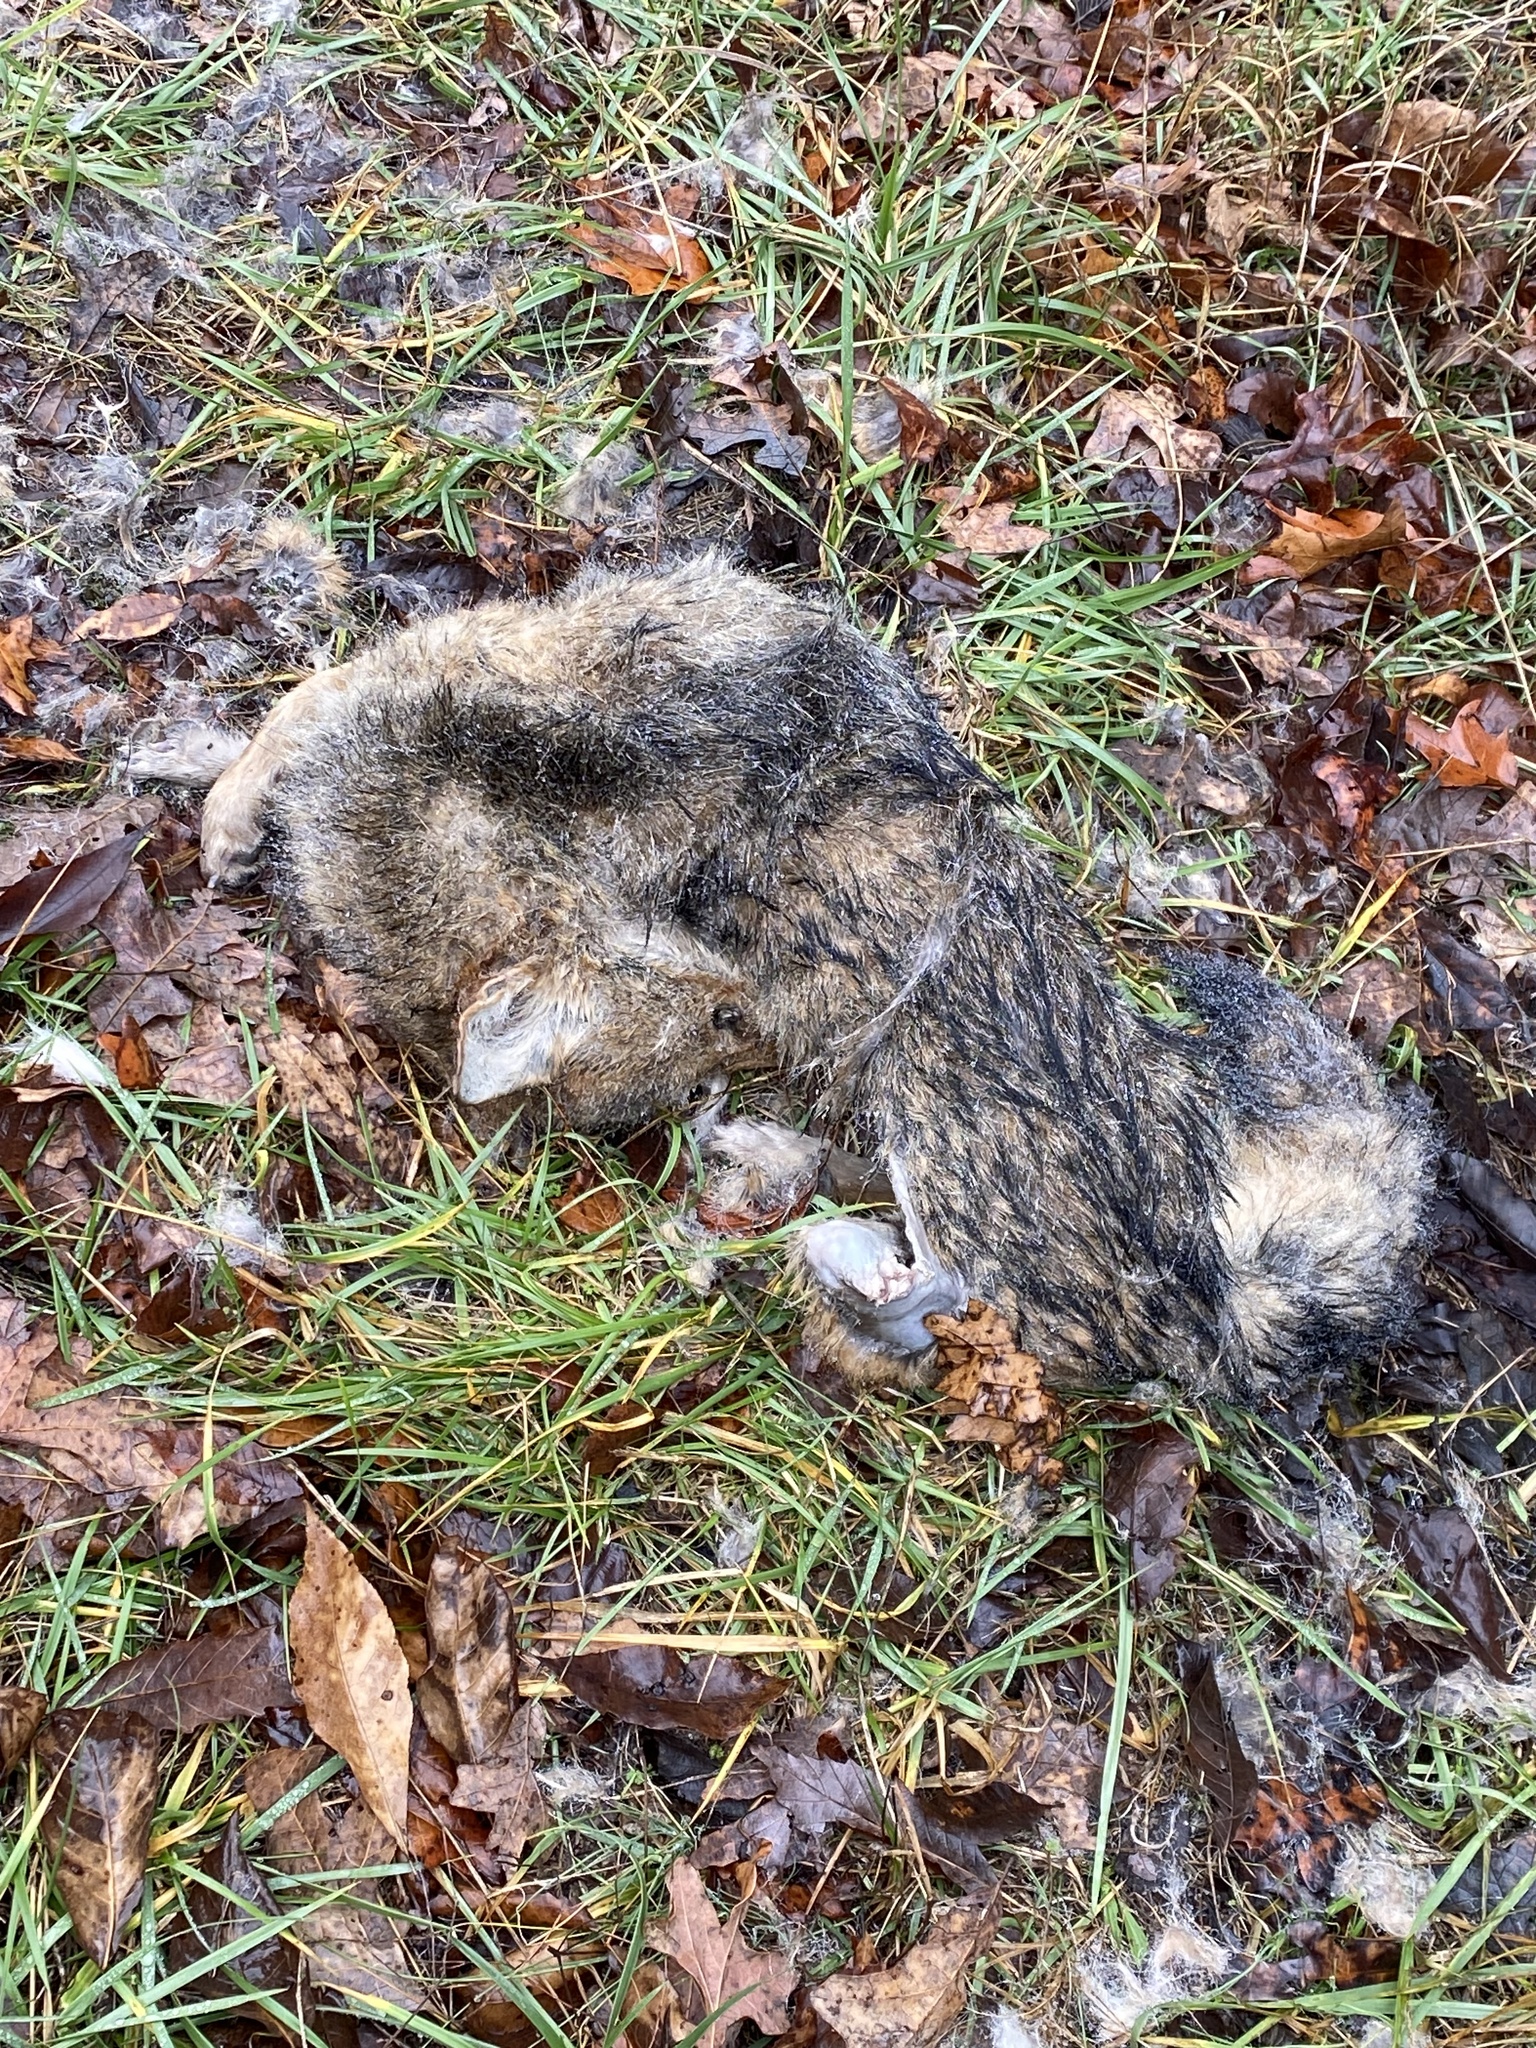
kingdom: Animalia
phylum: Chordata
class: Mammalia
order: Carnivora
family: Canidae
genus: Canis
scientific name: Canis latrans
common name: Coyote
